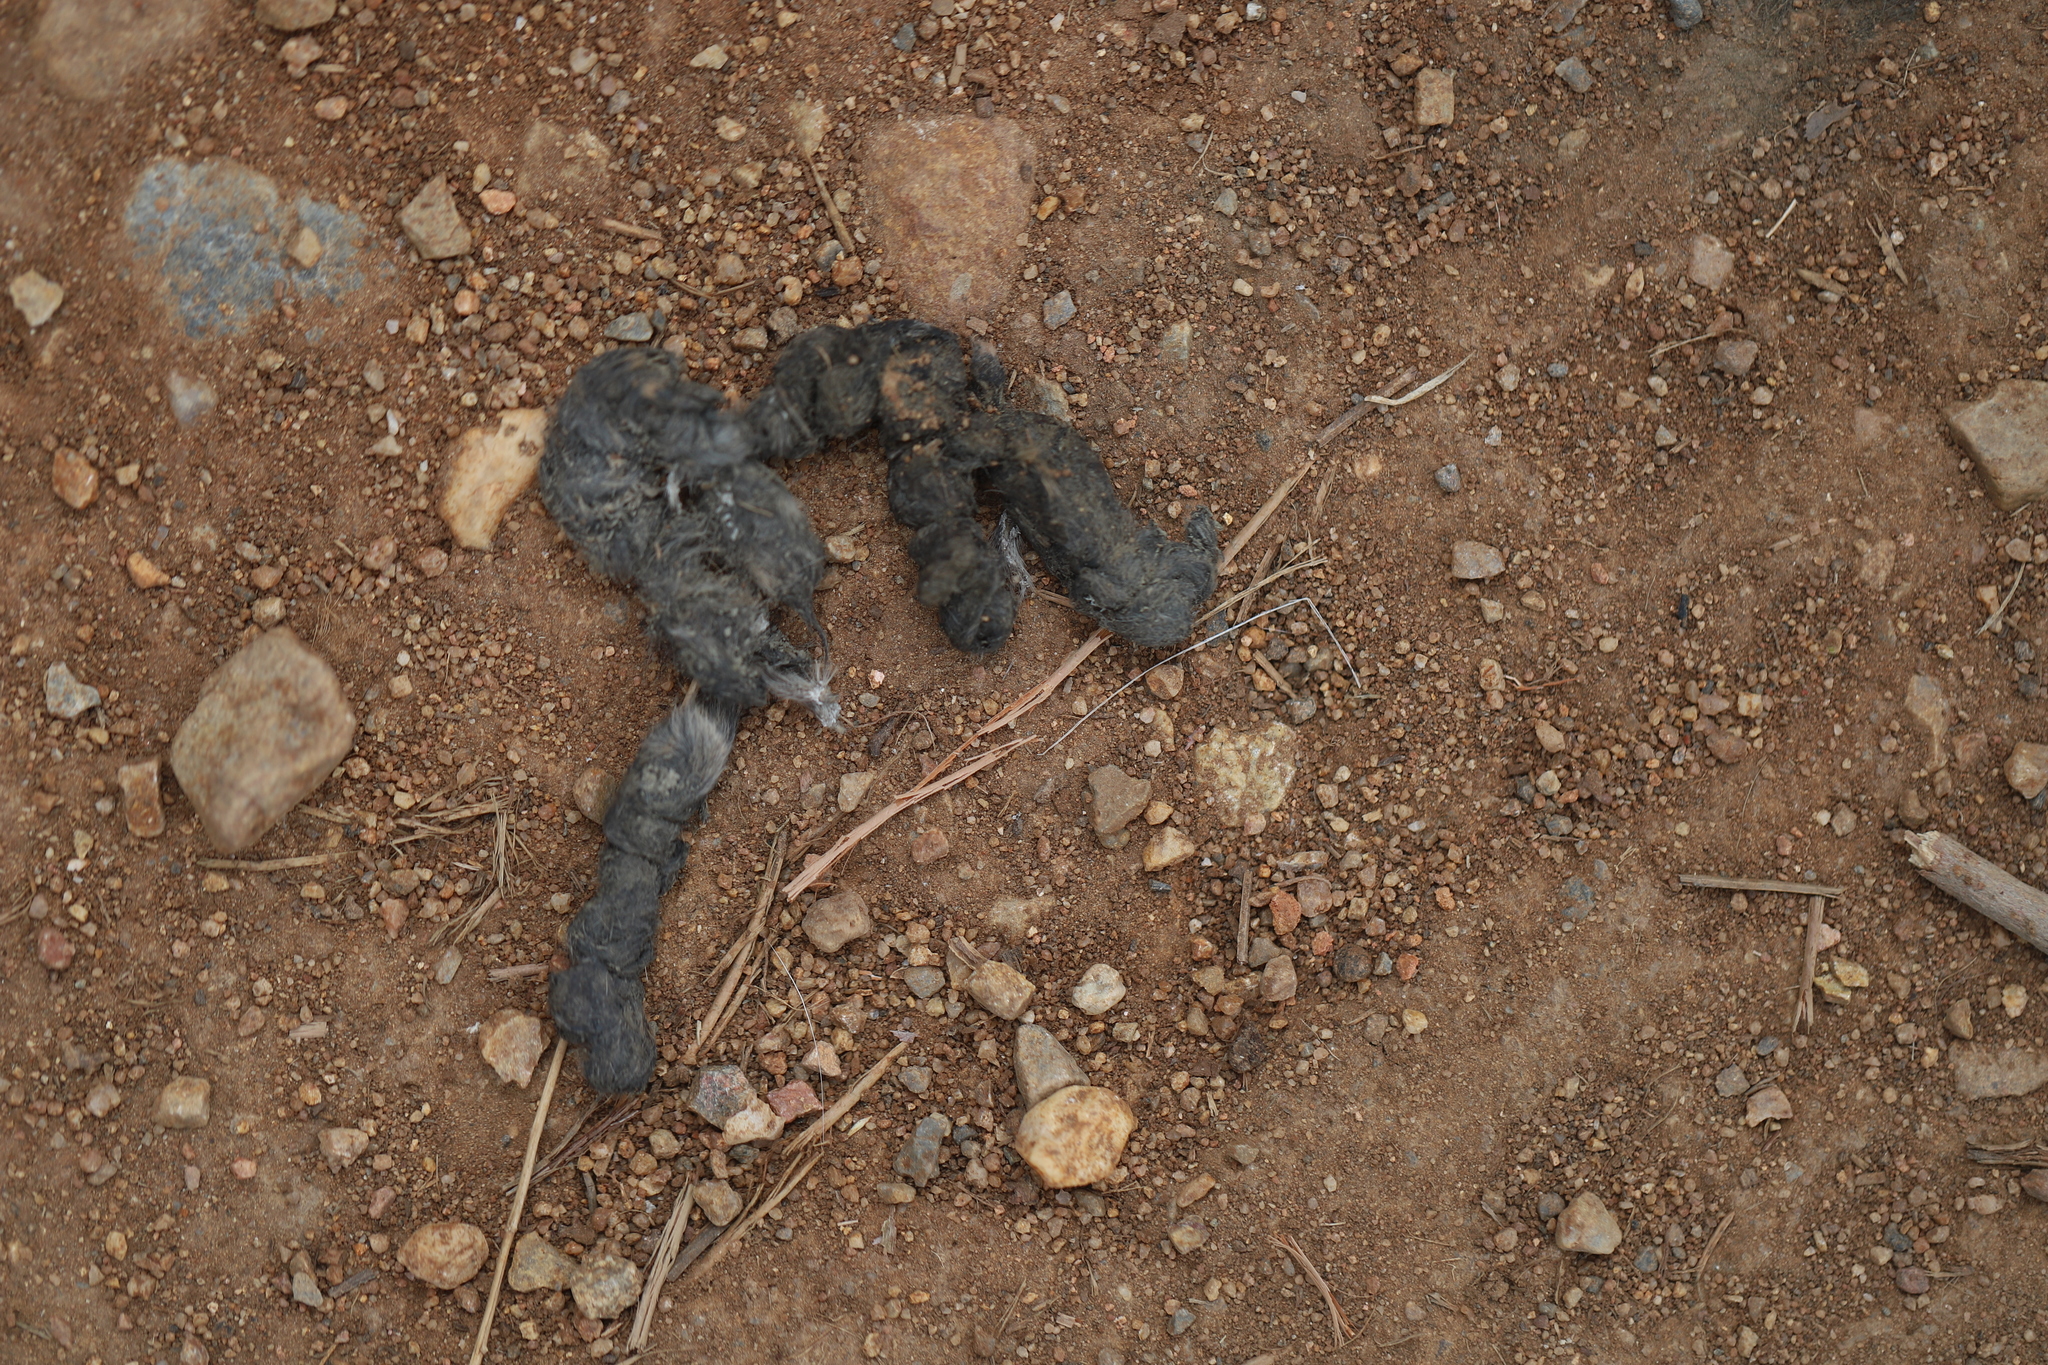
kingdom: Animalia
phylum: Chordata
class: Mammalia
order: Carnivora
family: Canidae
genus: Canis
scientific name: Canis latrans
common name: Coyote
